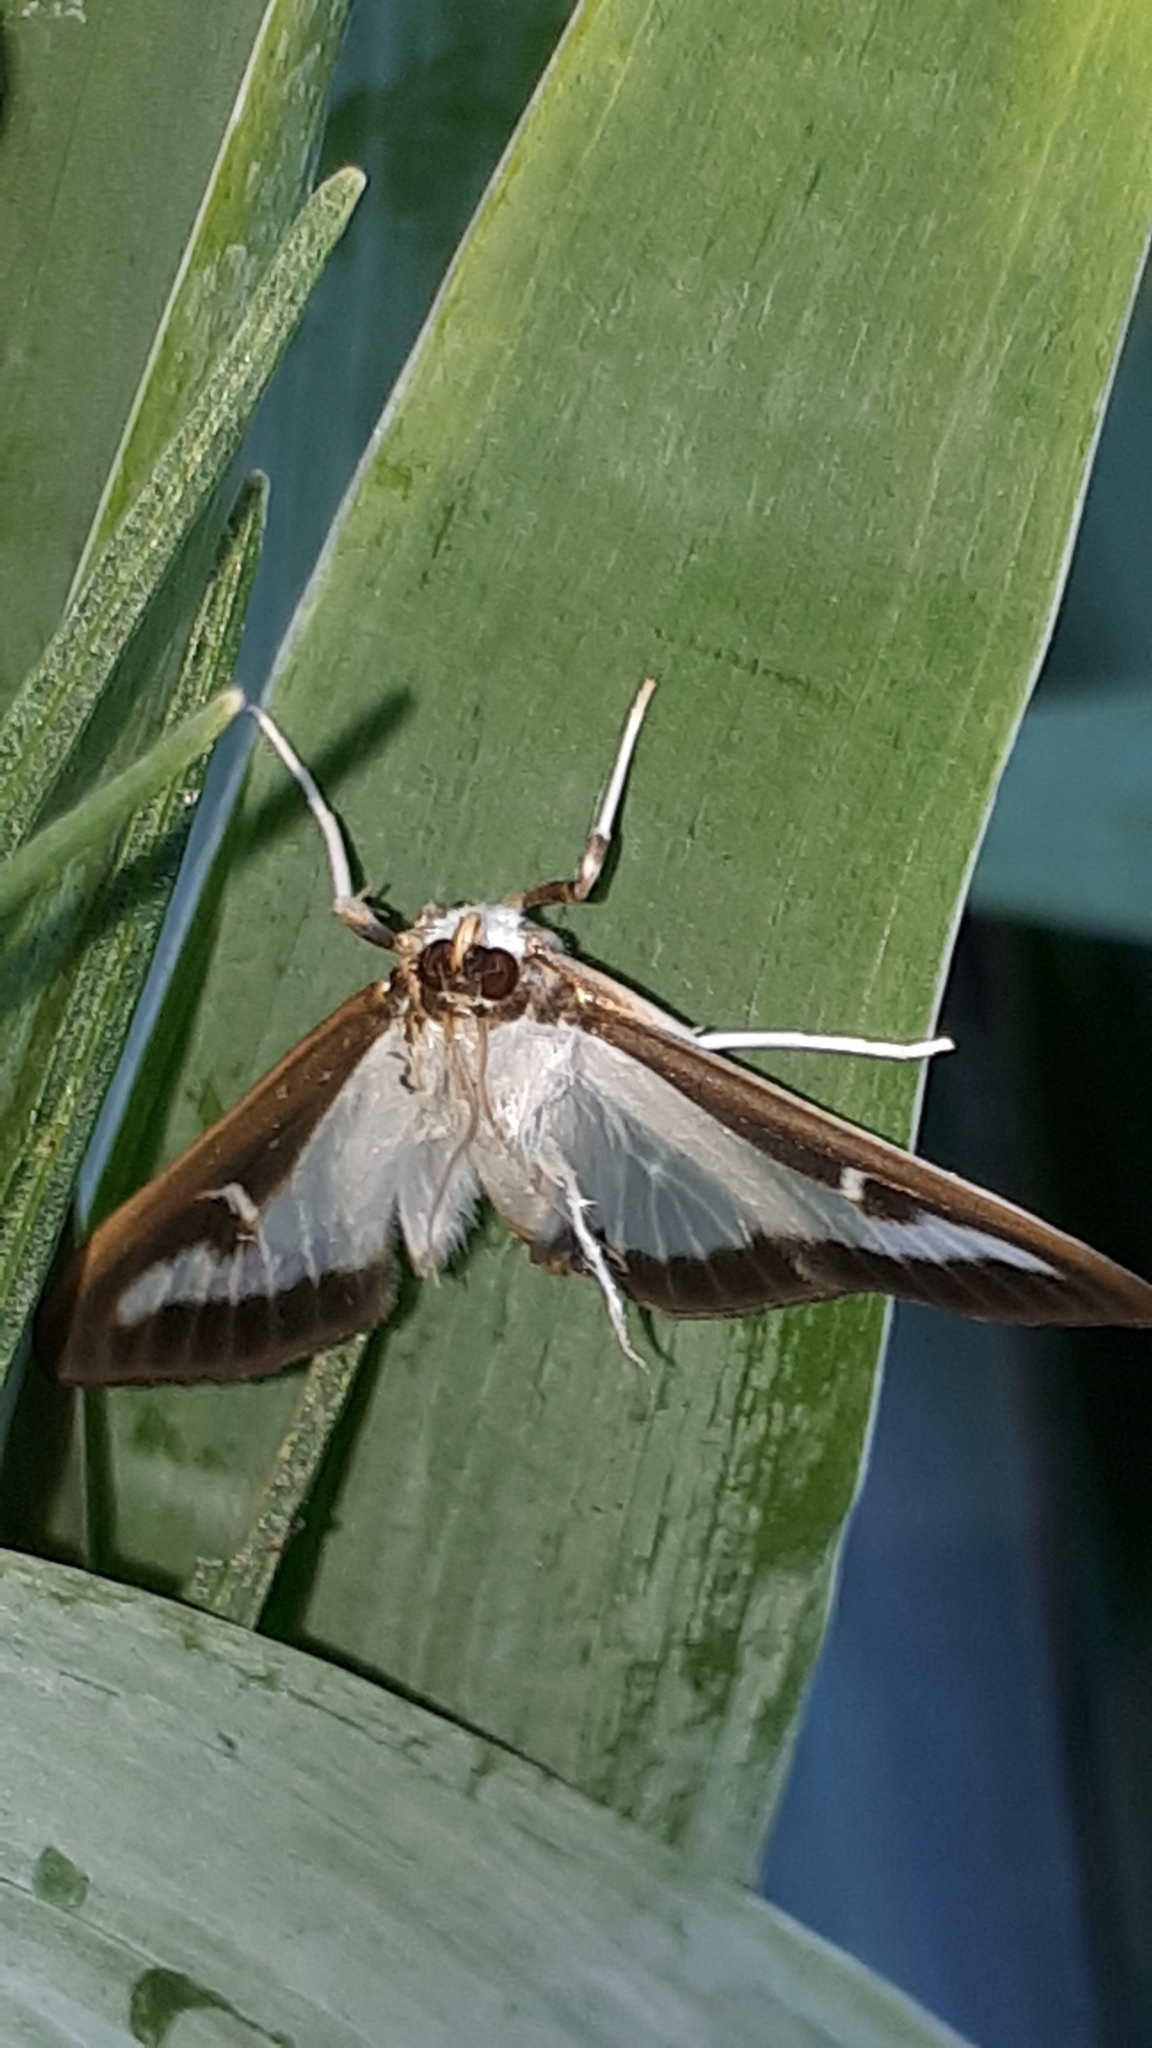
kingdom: Animalia
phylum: Arthropoda
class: Insecta
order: Lepidoptera
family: Crambidae
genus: Cydalima
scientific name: Cydalima perspectalis
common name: Box tree moth
